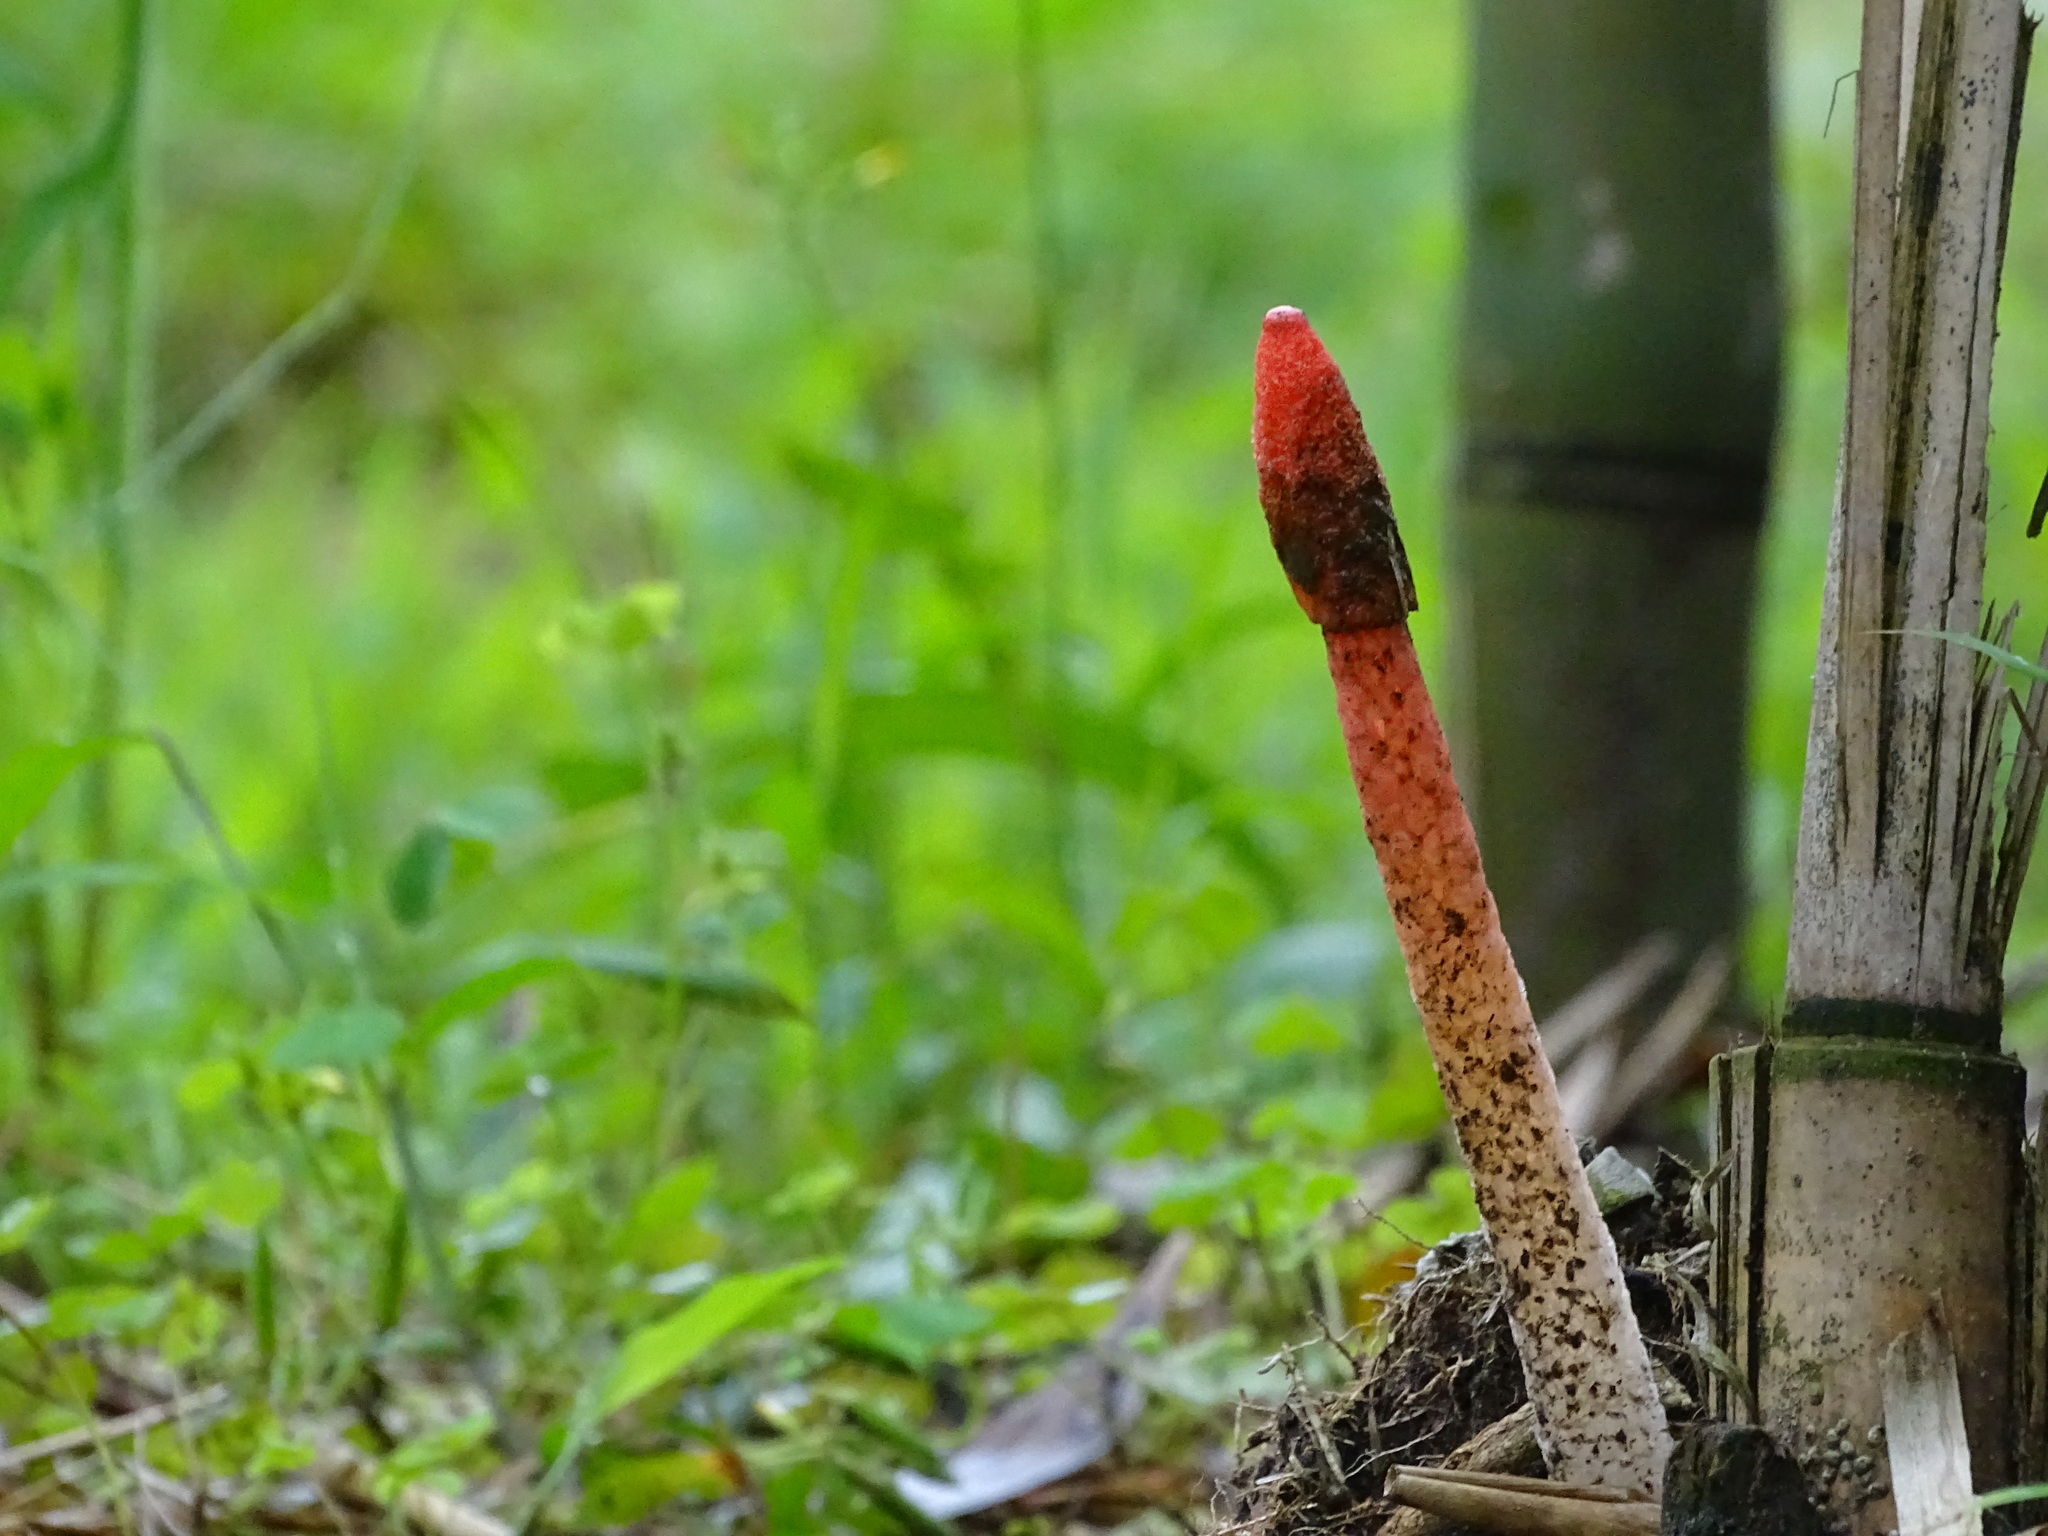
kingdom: Fungi
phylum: Basidiomycota
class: Agaricomycetes
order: Phallales
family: Phallaceae
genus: Phallus
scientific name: Phallus rugulosus
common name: Wrinkly stinkhorn
